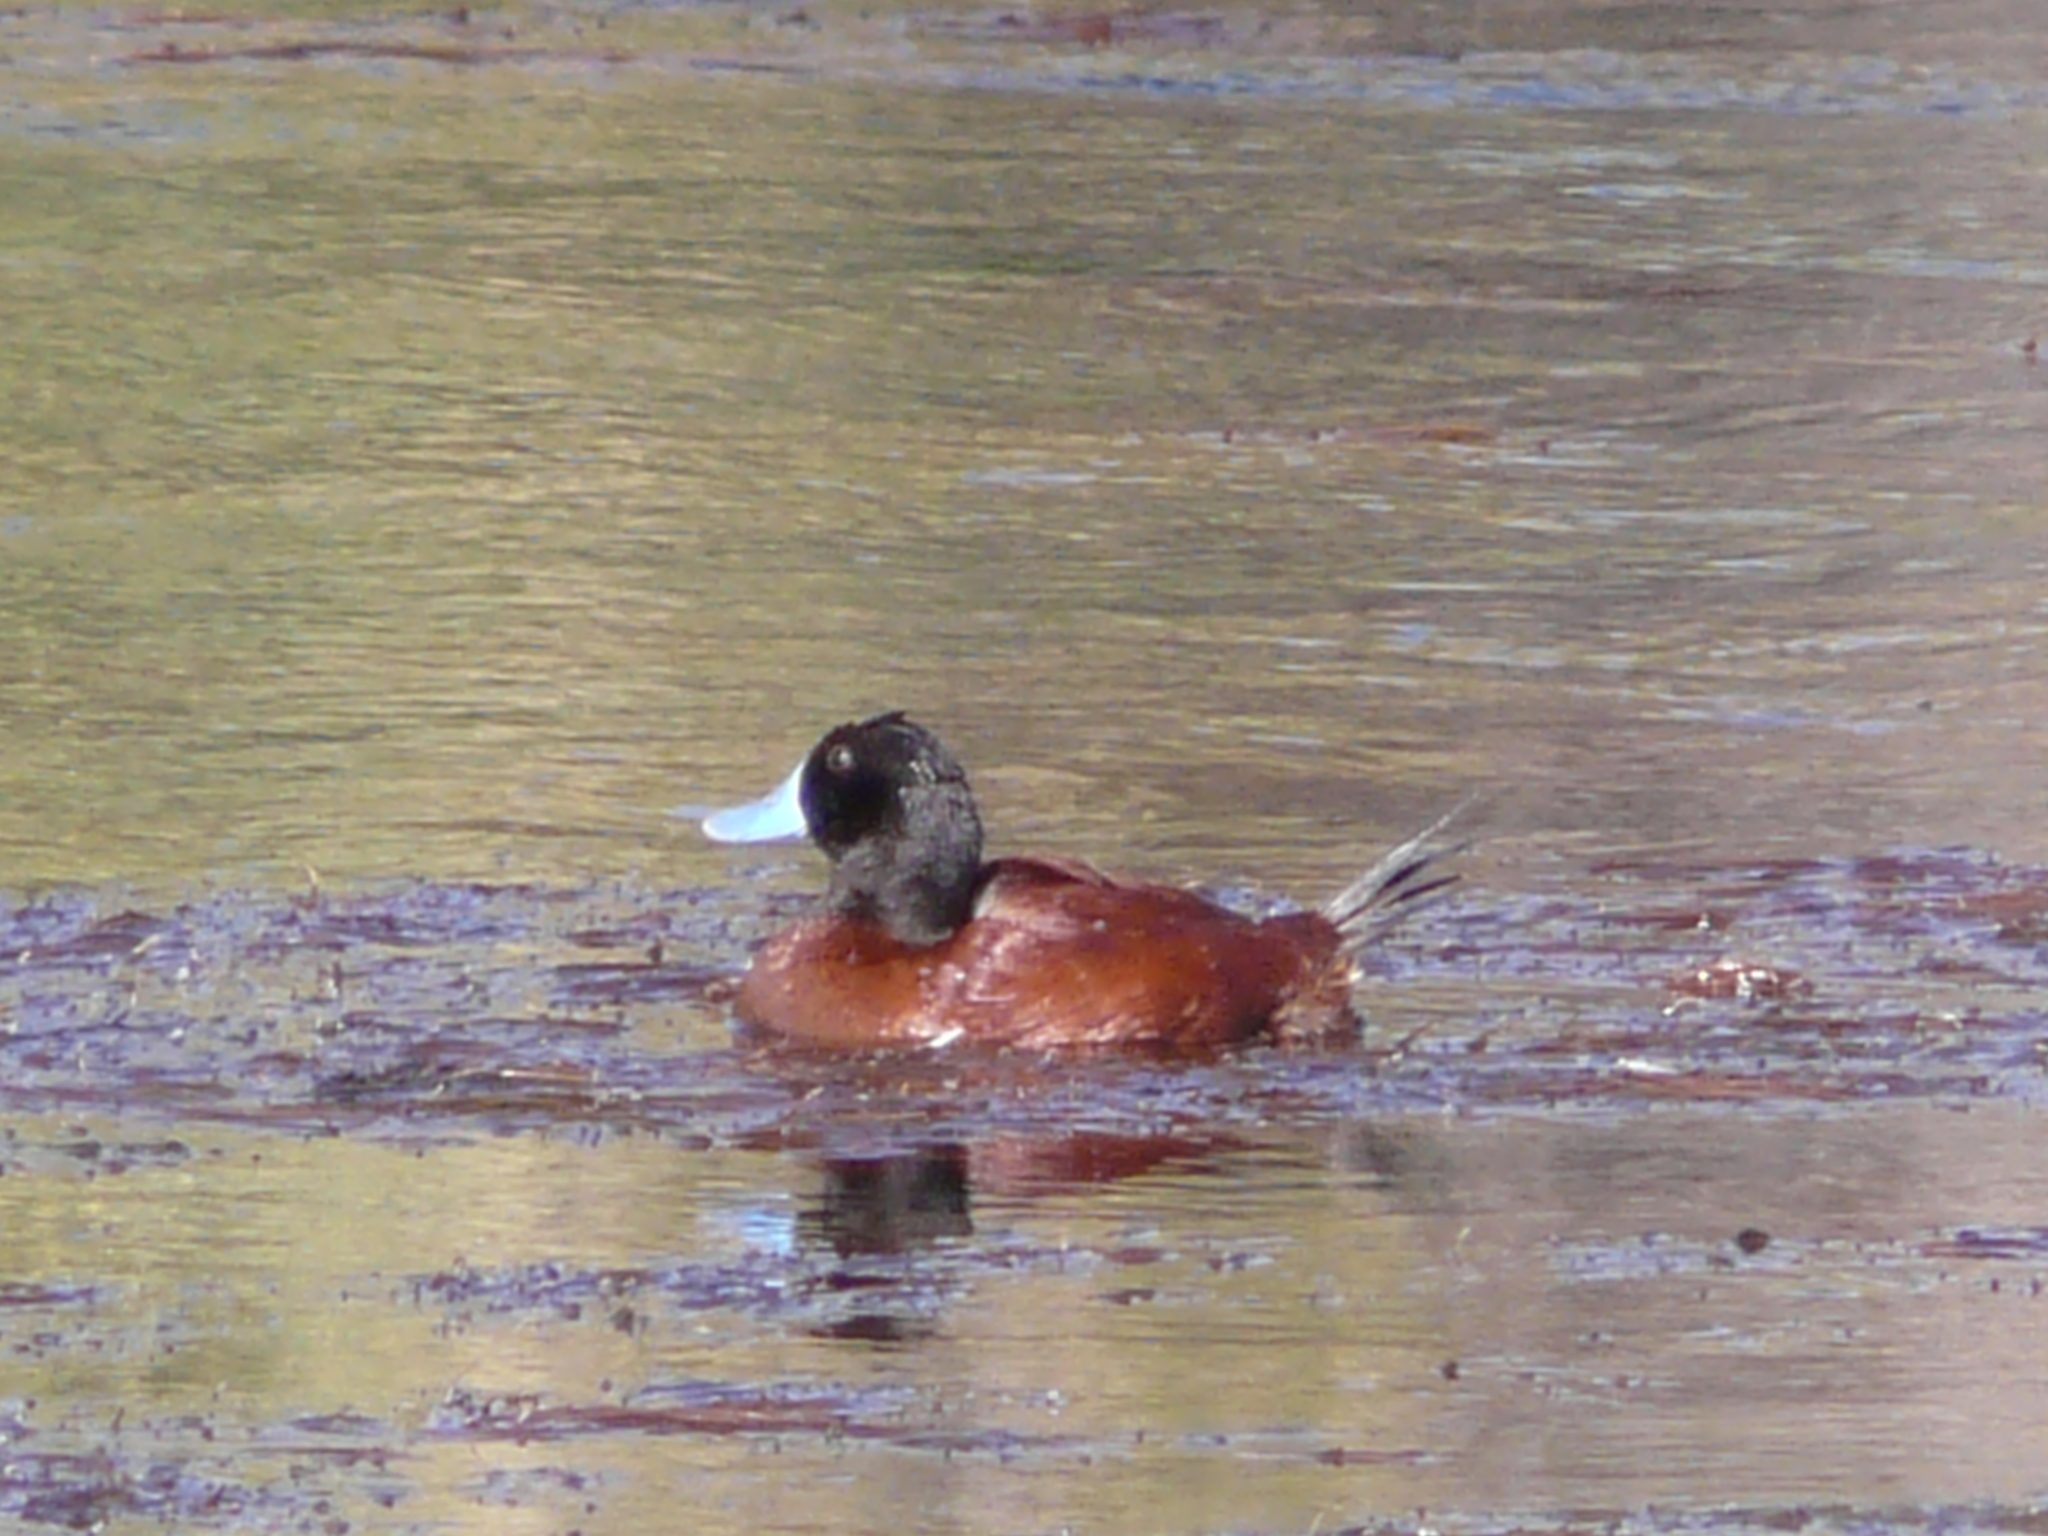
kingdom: Animalia
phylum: Chordata
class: Aves
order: Anseriformes
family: Anatidae
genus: Oxyura
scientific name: Oxyura vittata
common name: Lake duck
